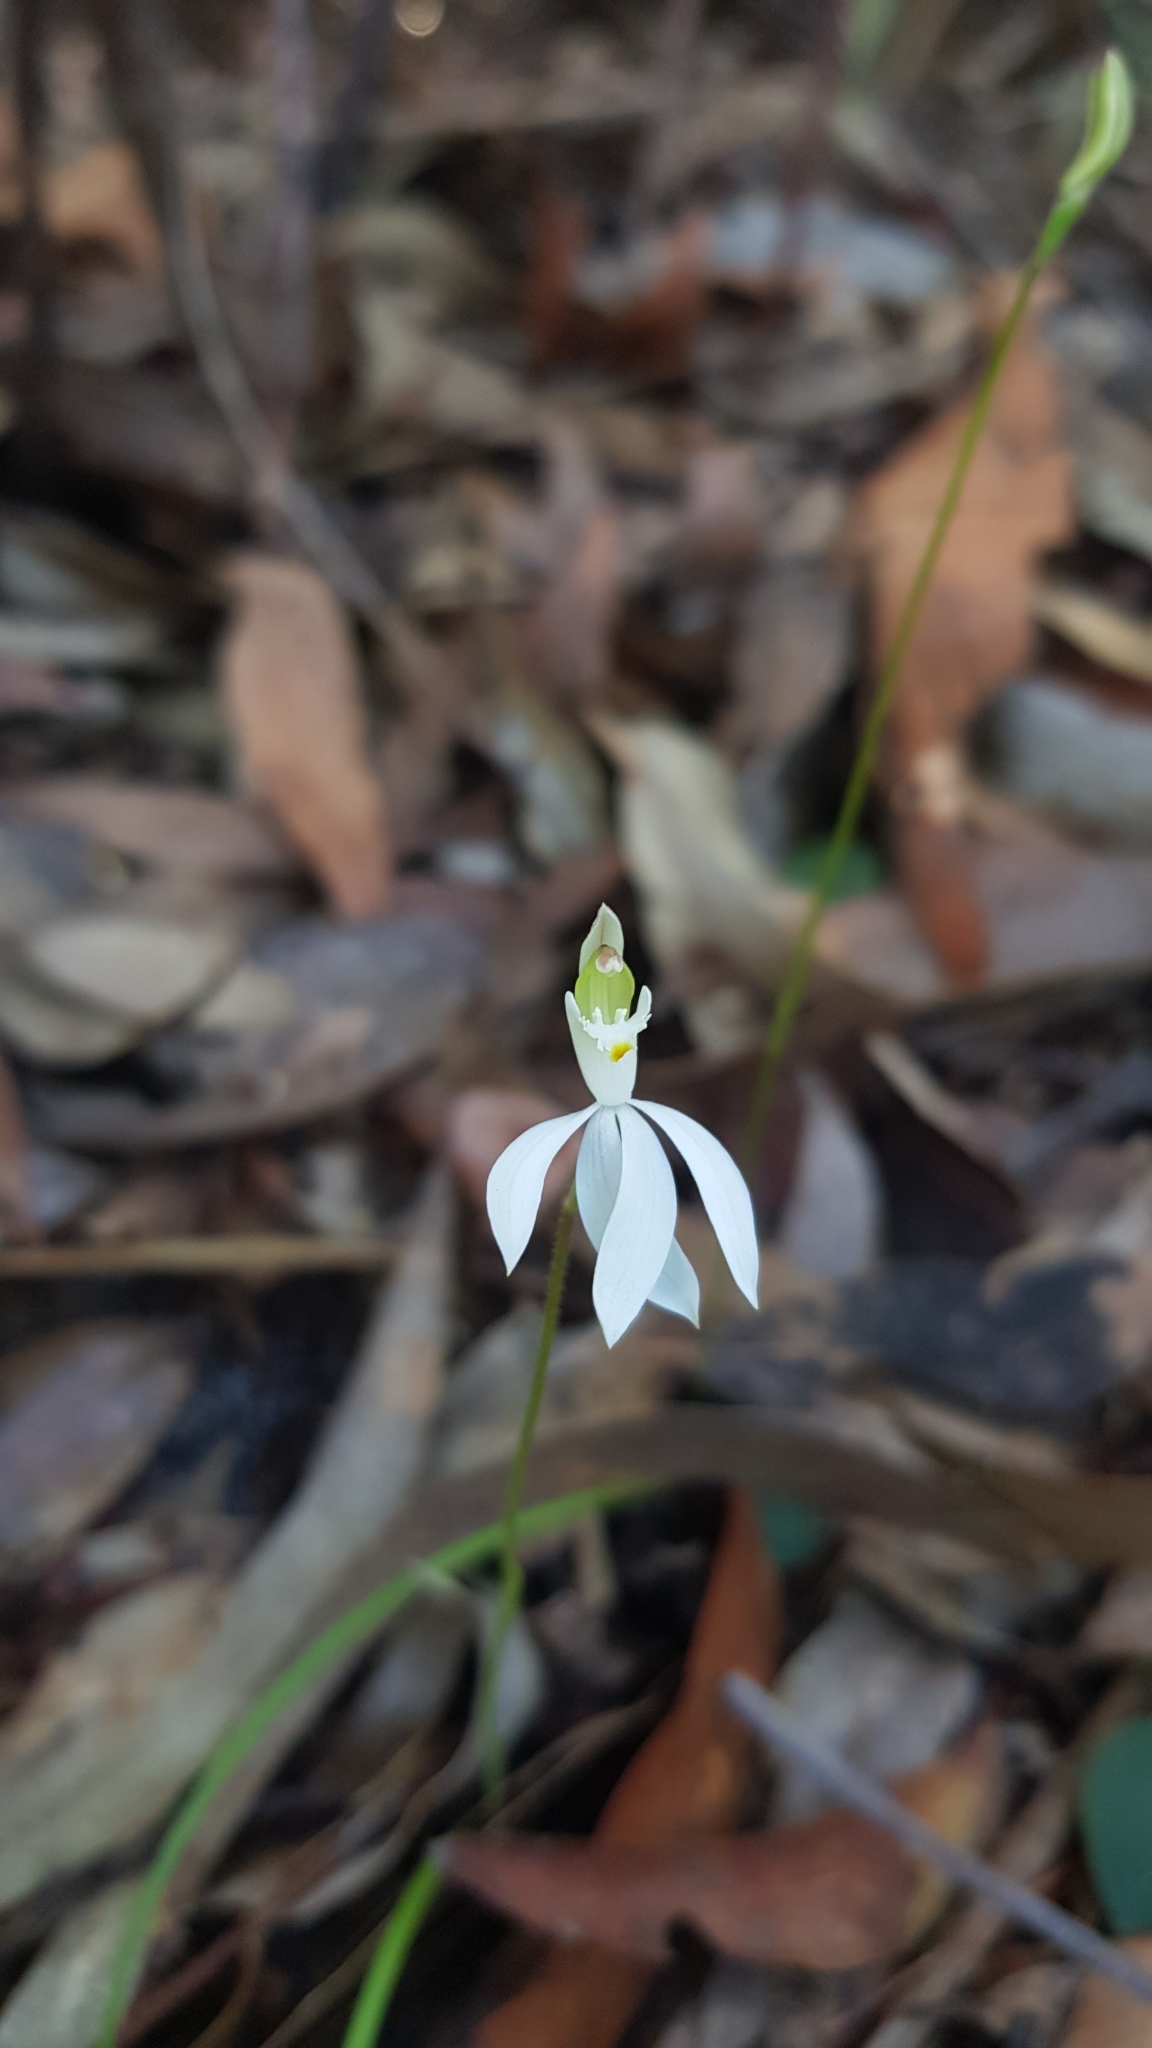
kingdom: Plantae
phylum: Tracheophyta
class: Liliopsida
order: Asparagales
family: Orchidaceae
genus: Caladenia
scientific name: Caladenia catenata
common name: White caladenia
